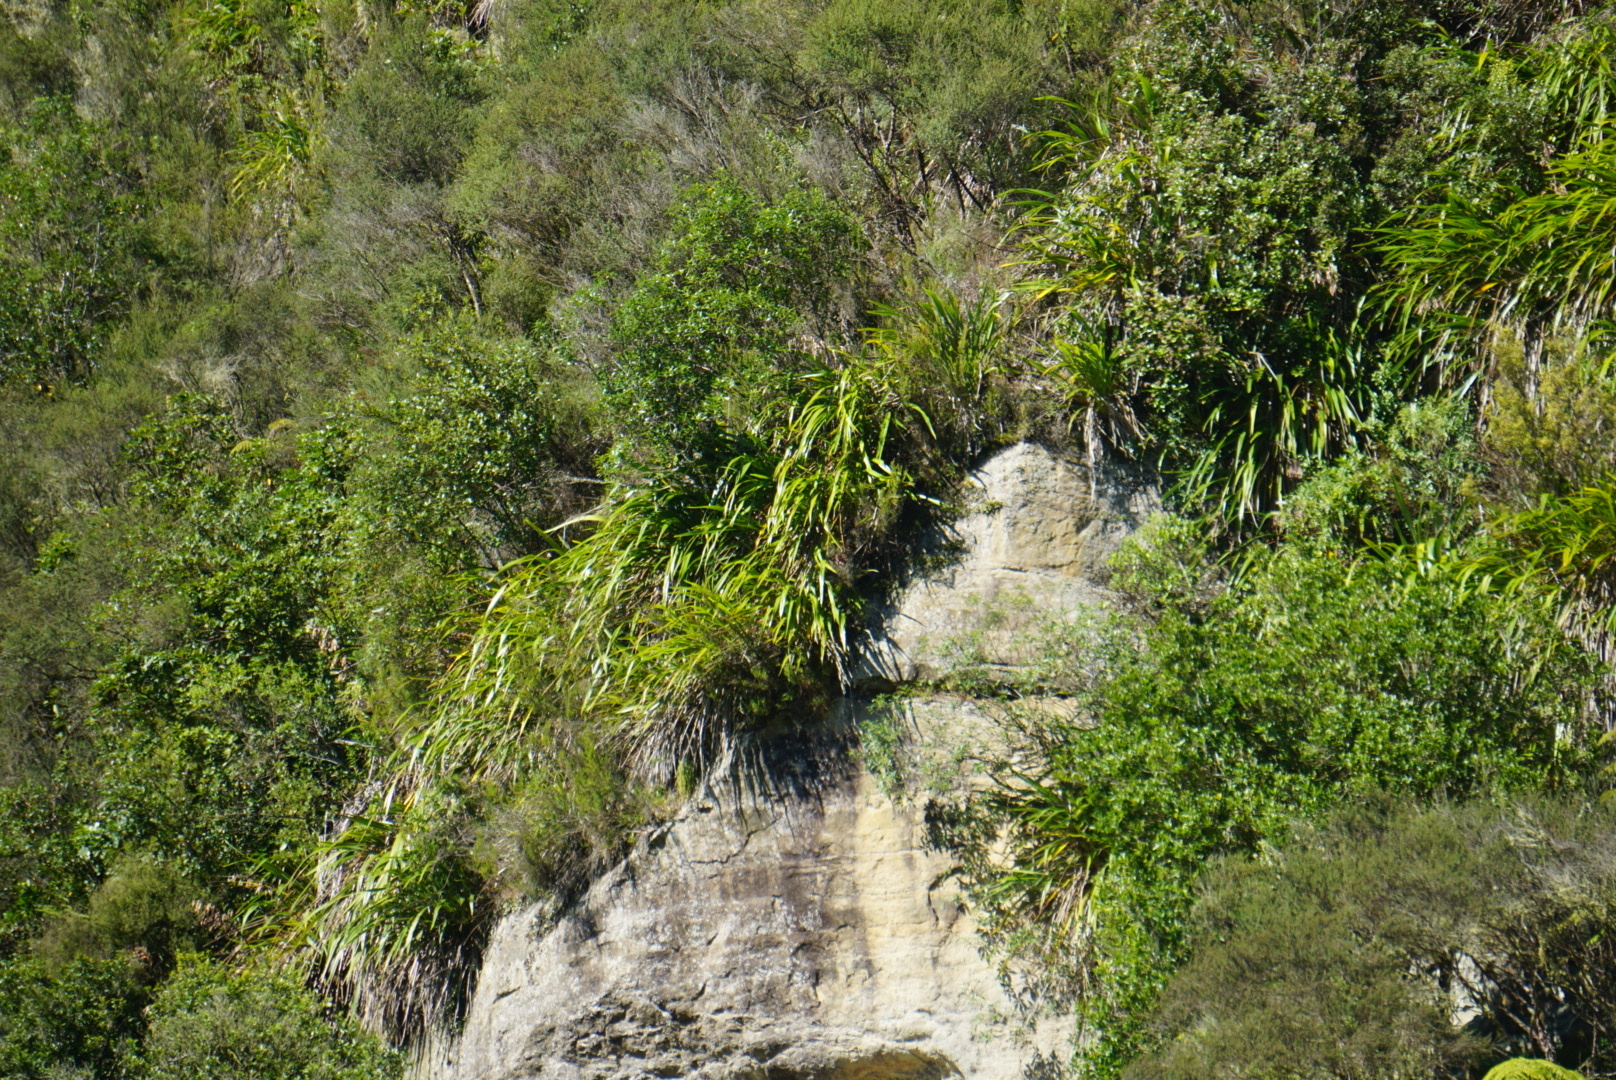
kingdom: Plantae
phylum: Tracheophyta
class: Liliopsida
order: Asparagales
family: Asphodelaceae
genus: Phormium
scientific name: Phormium colensoi
